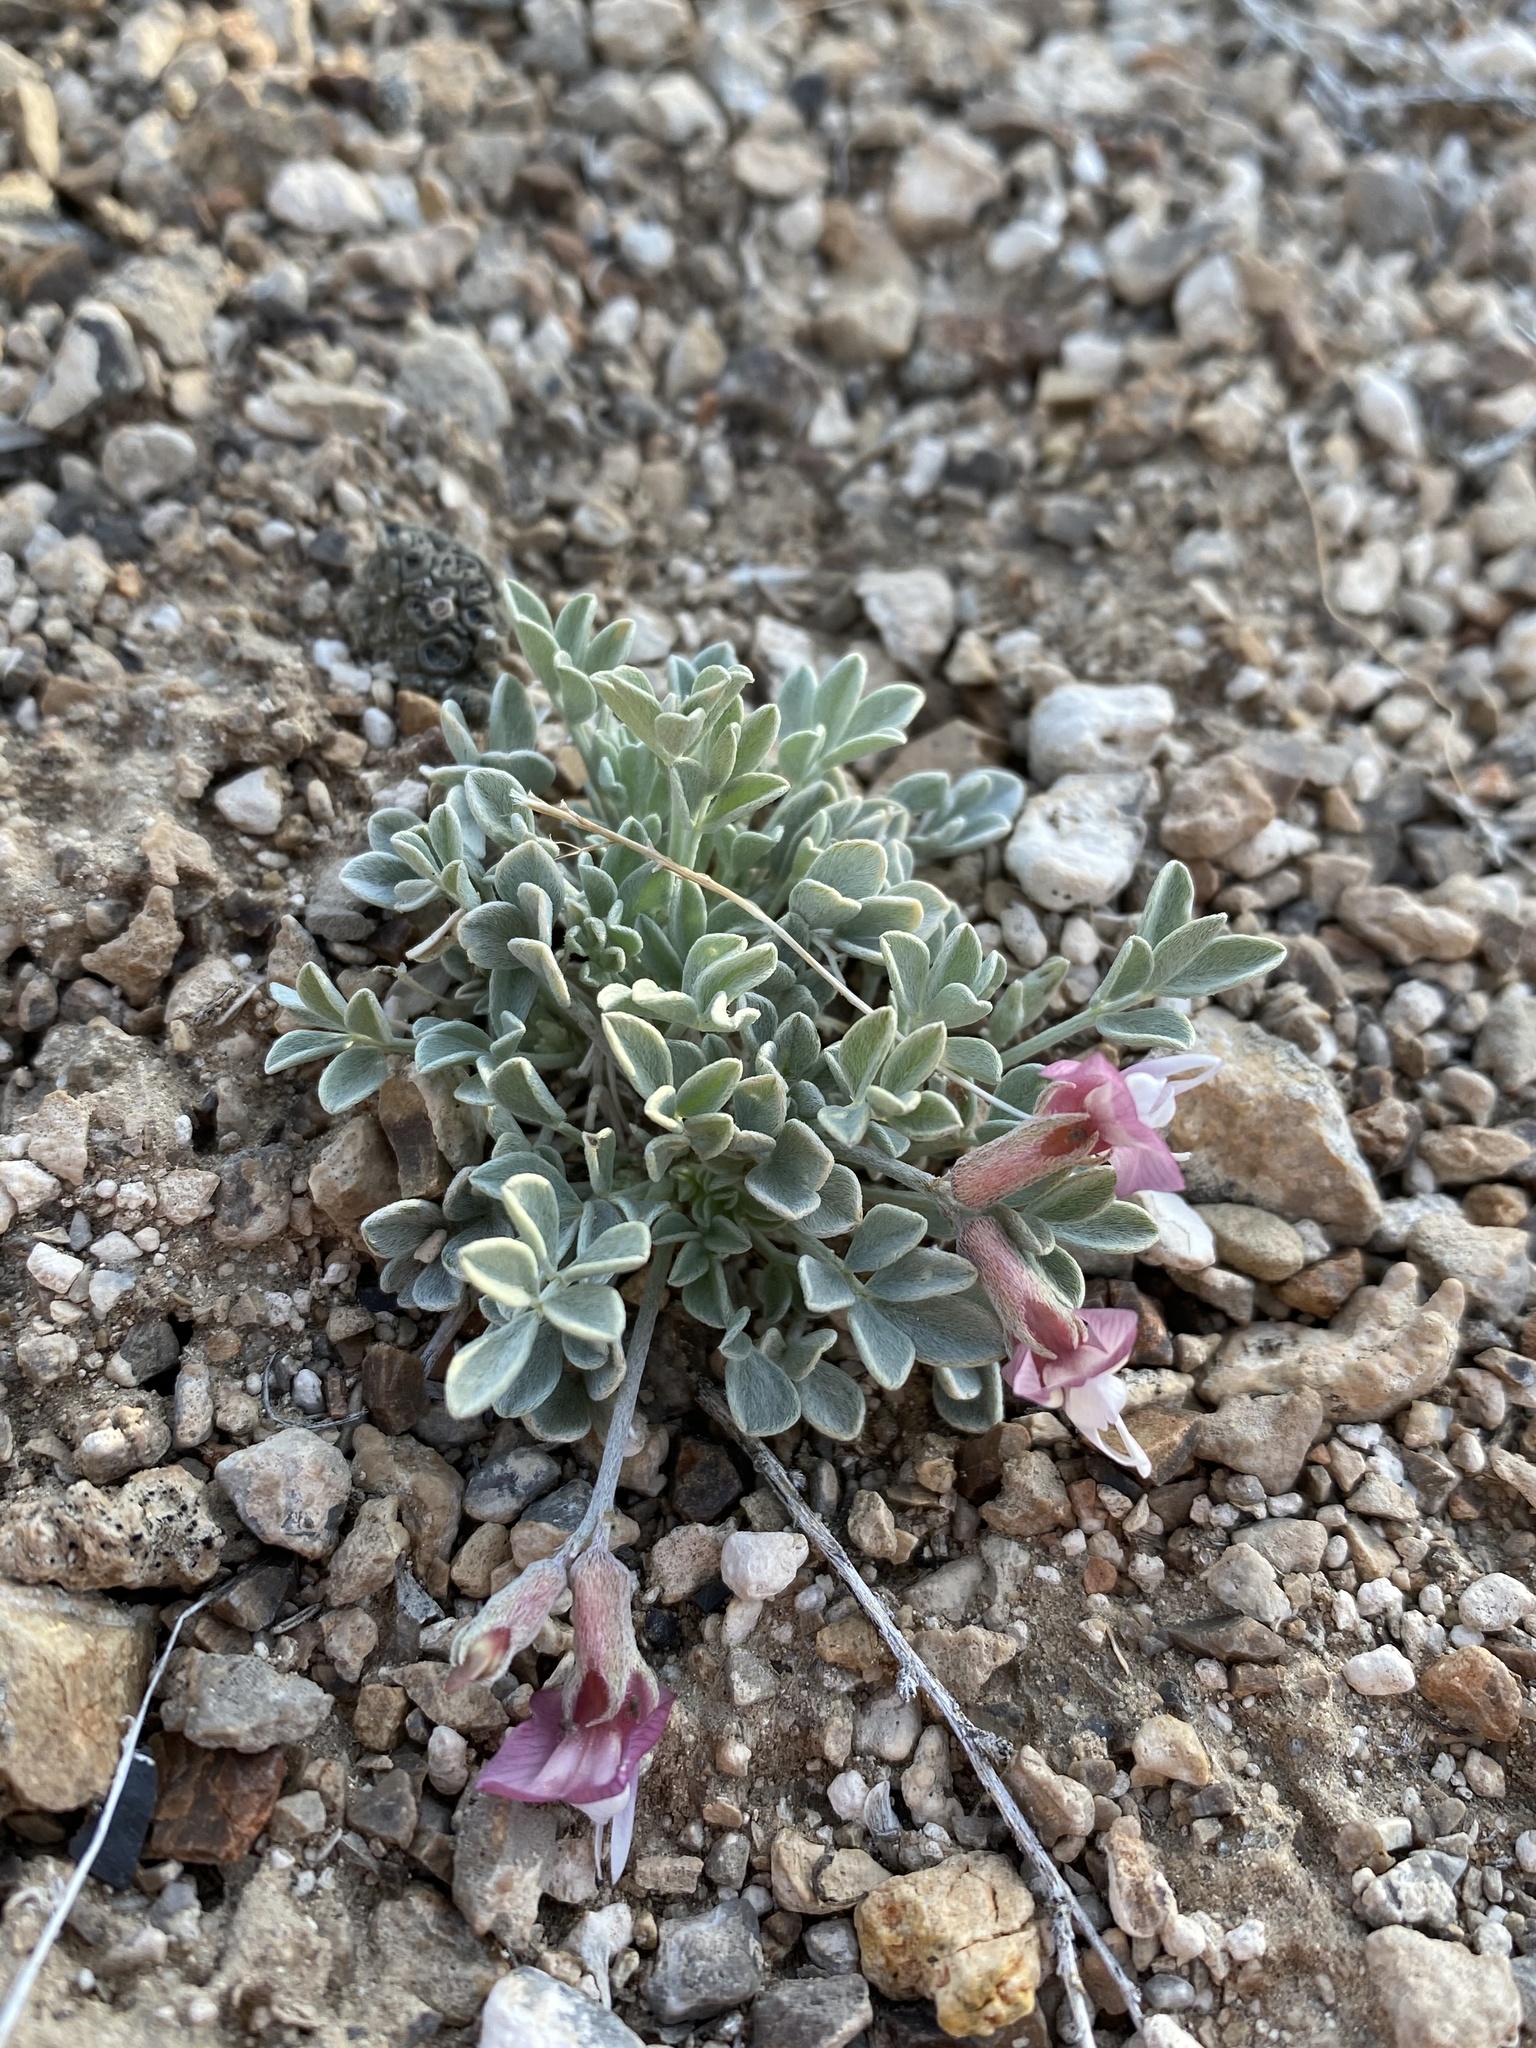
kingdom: Plantae
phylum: Tracheophyta
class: Magnoliopsida
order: Fabales
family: Fabaceae
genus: Astragalus
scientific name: Astragalus calycosus
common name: King's milkvetch
